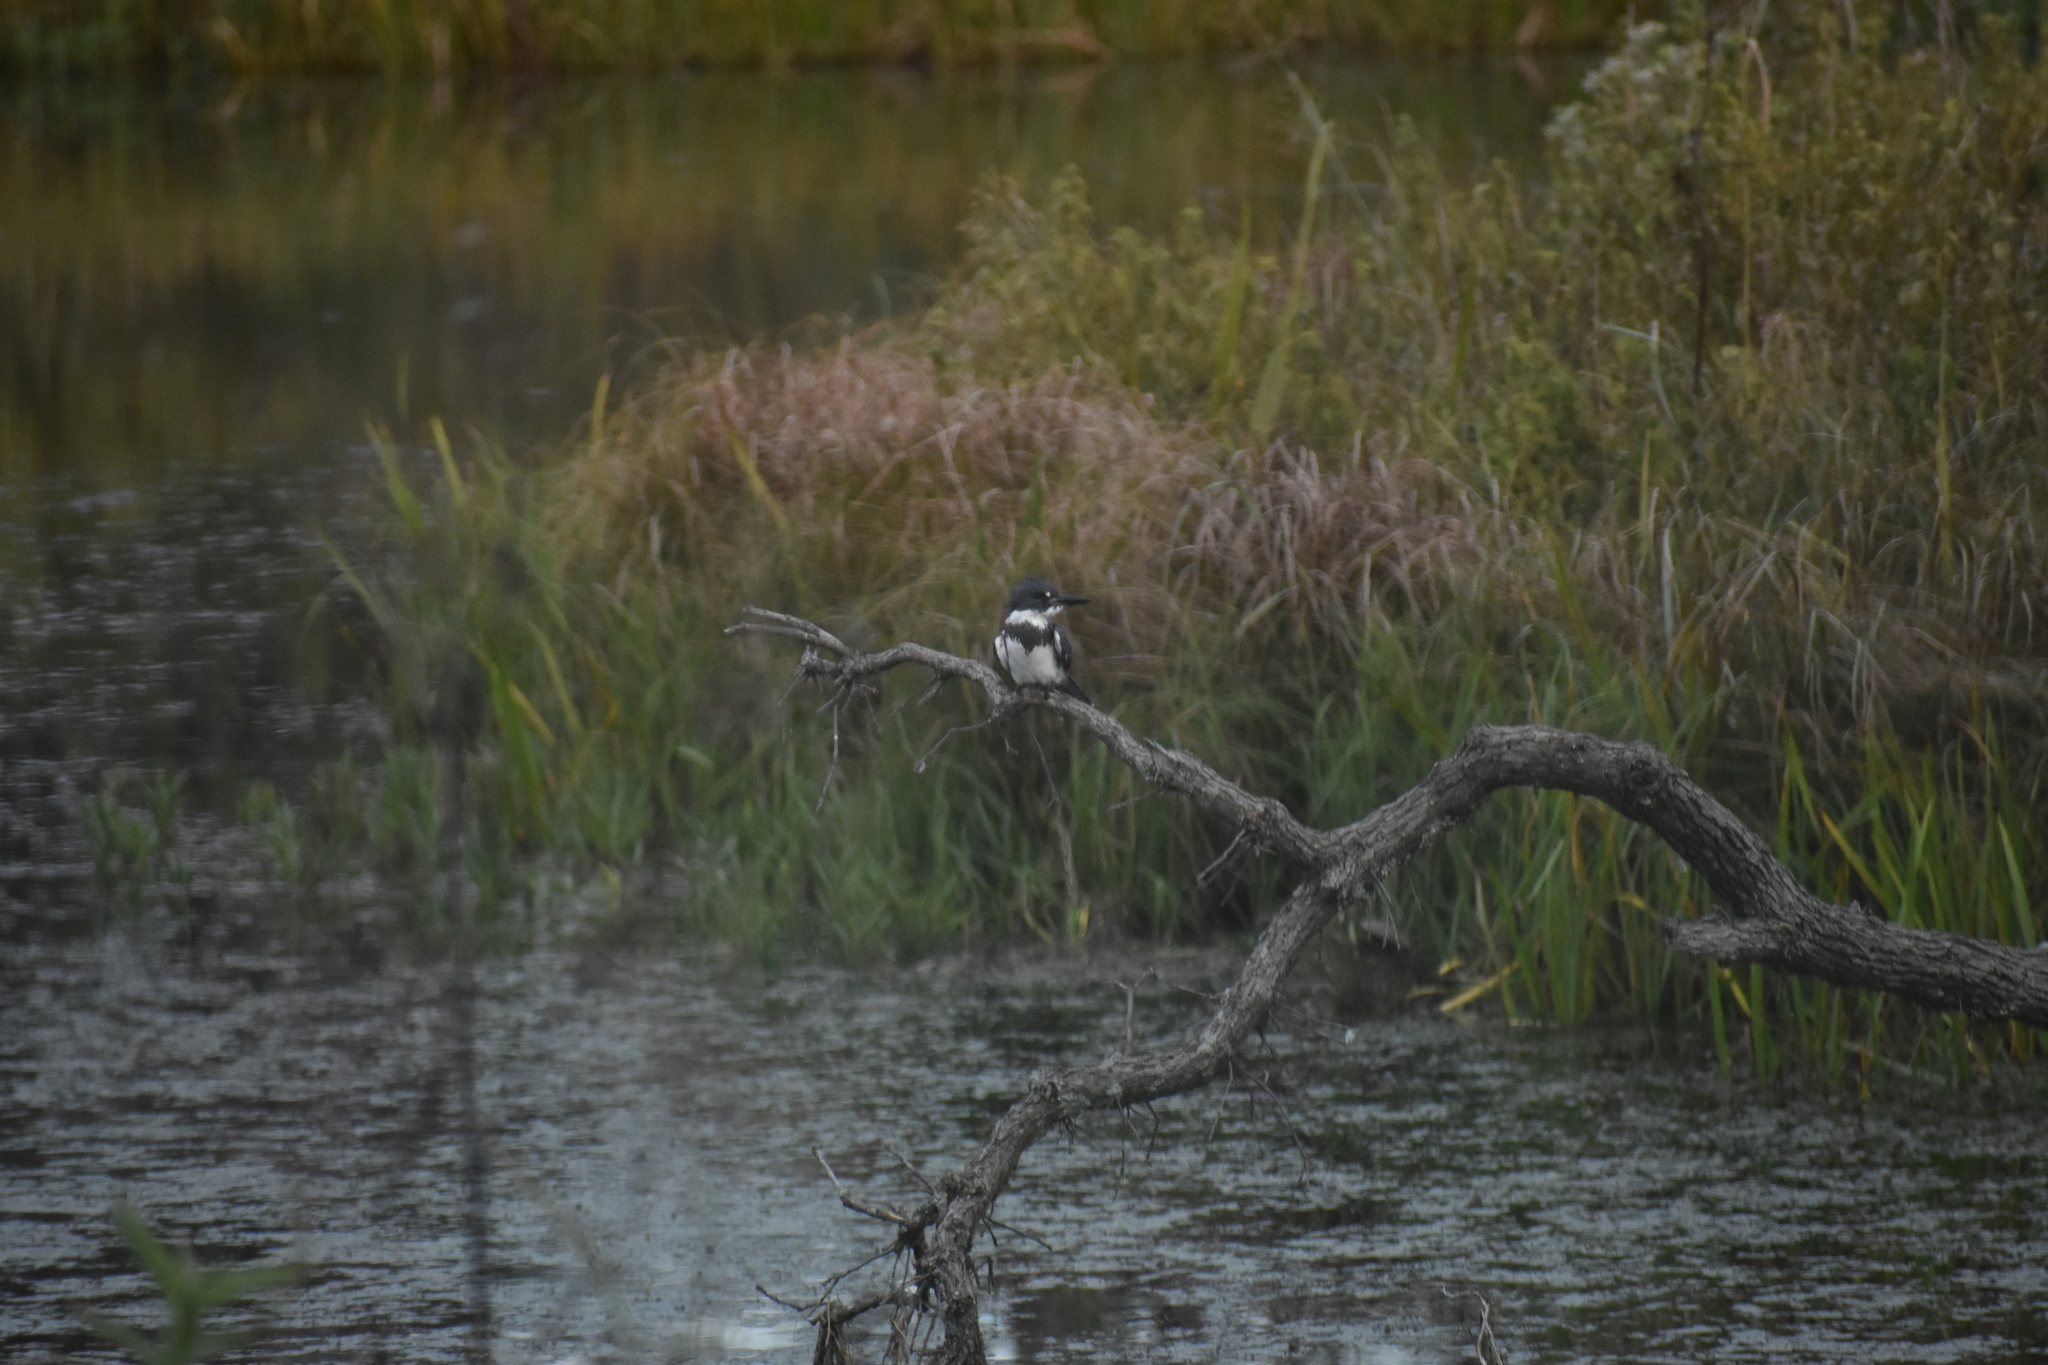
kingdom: Animalia
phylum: Chordata
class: Aves
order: Coraciiformes
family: Alcedinidae
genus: Megaceryle
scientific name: Megaceryle alcyon
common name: Belted kingfisher
